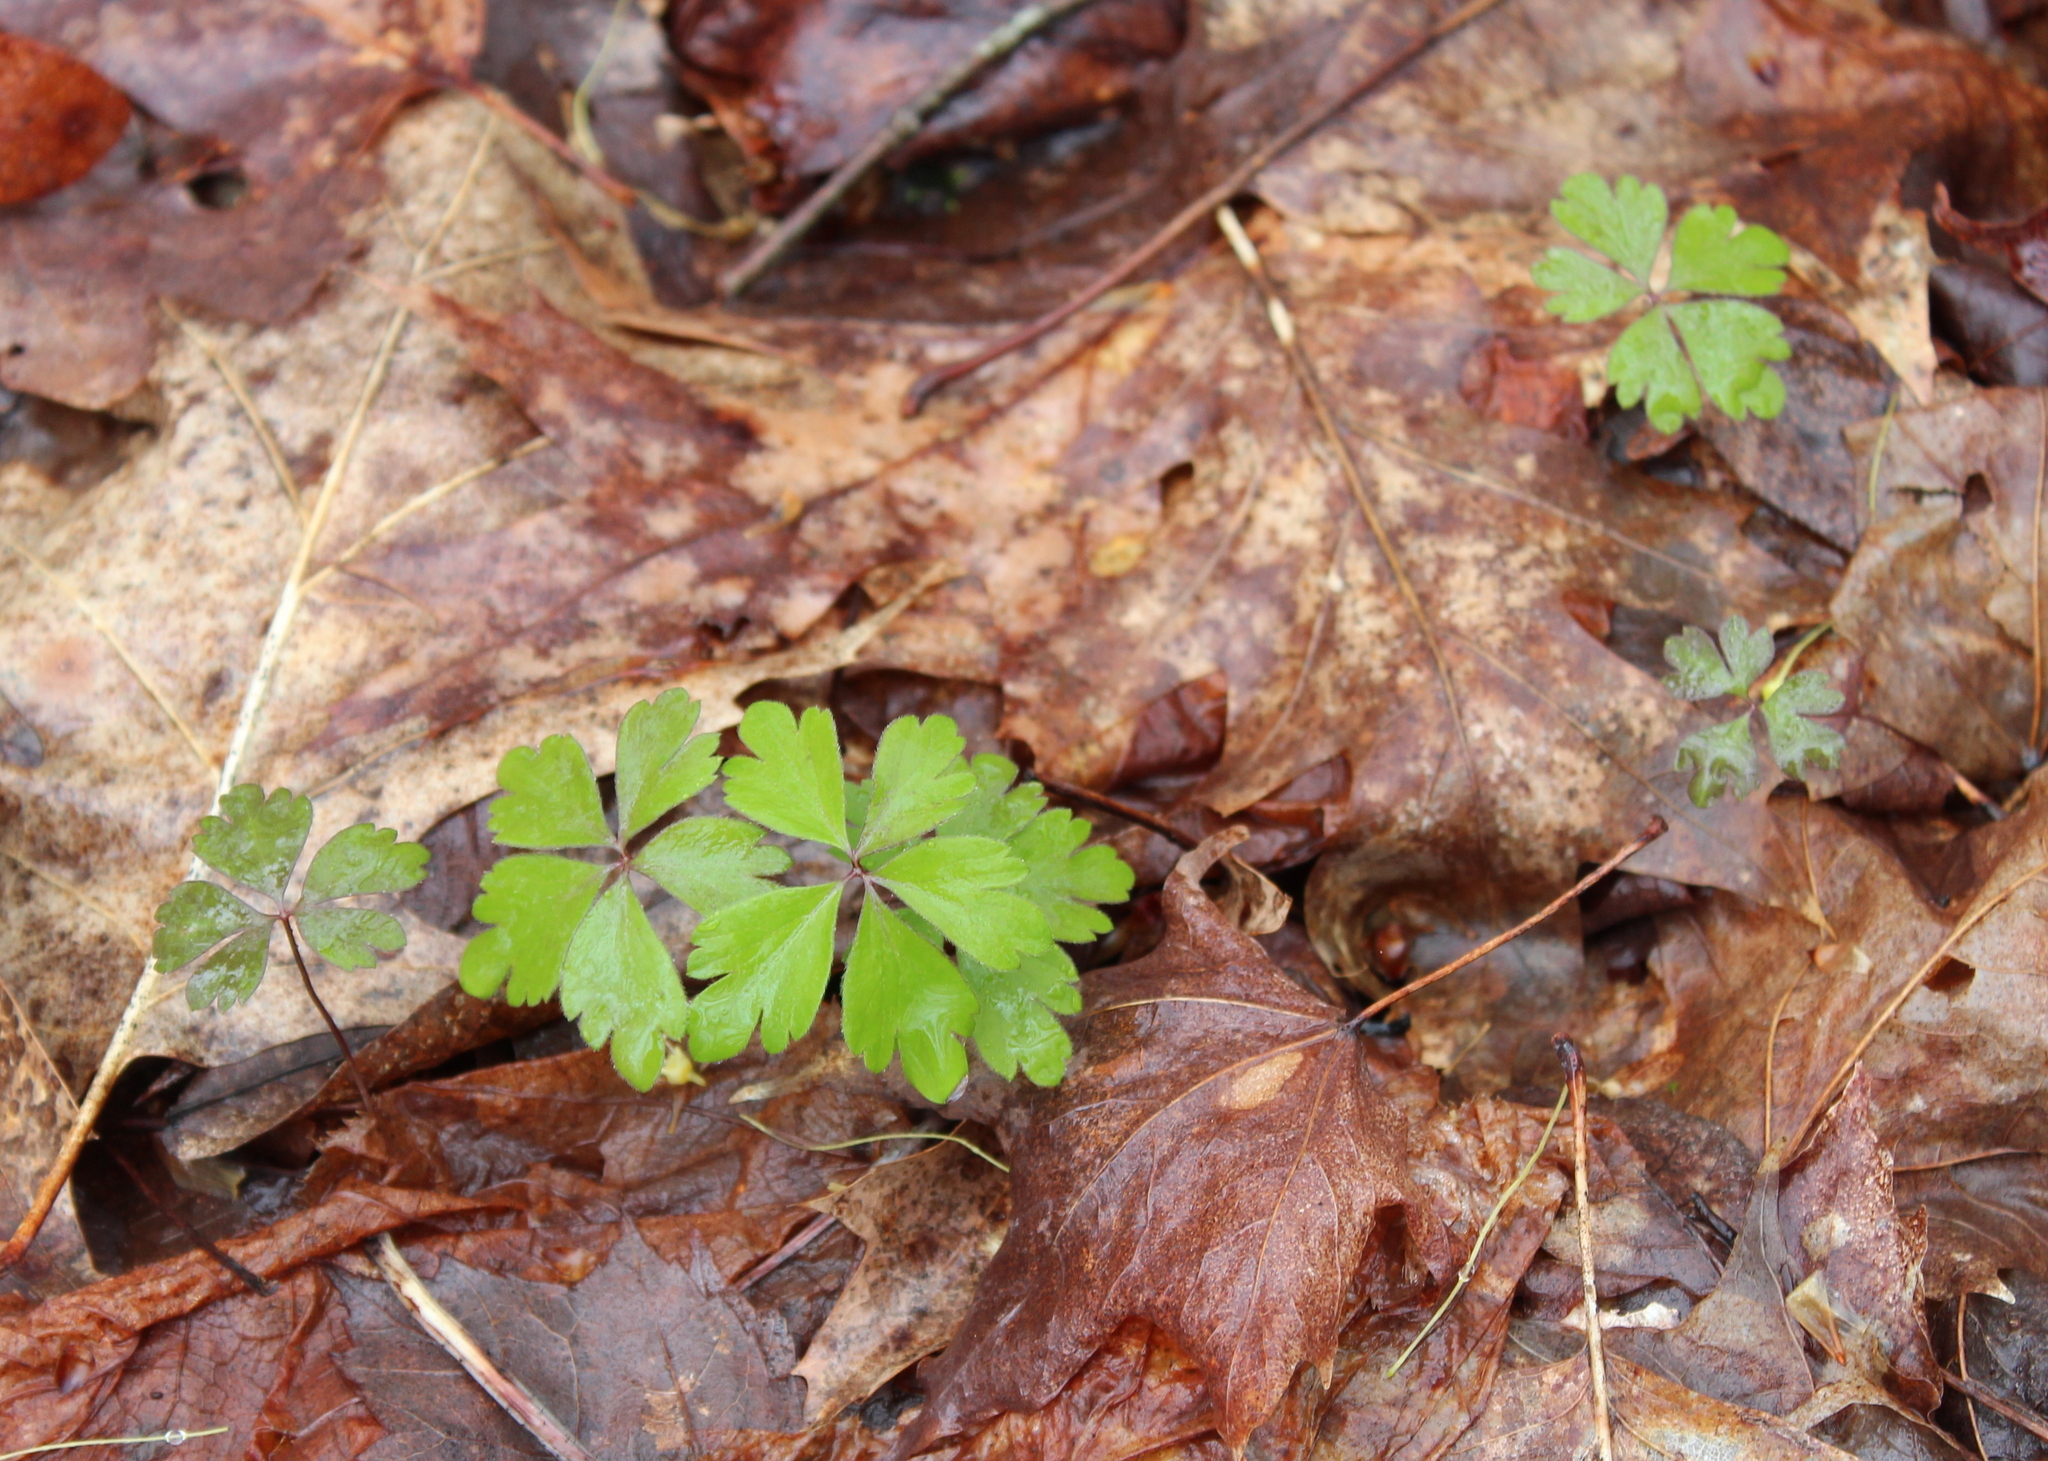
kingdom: Plantae
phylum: Tracheophyta
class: Magnoliopsida
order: Ranunculales
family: Ranunculaceae
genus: Anemone
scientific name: Anemone quinquefolia
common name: Wood anemone
